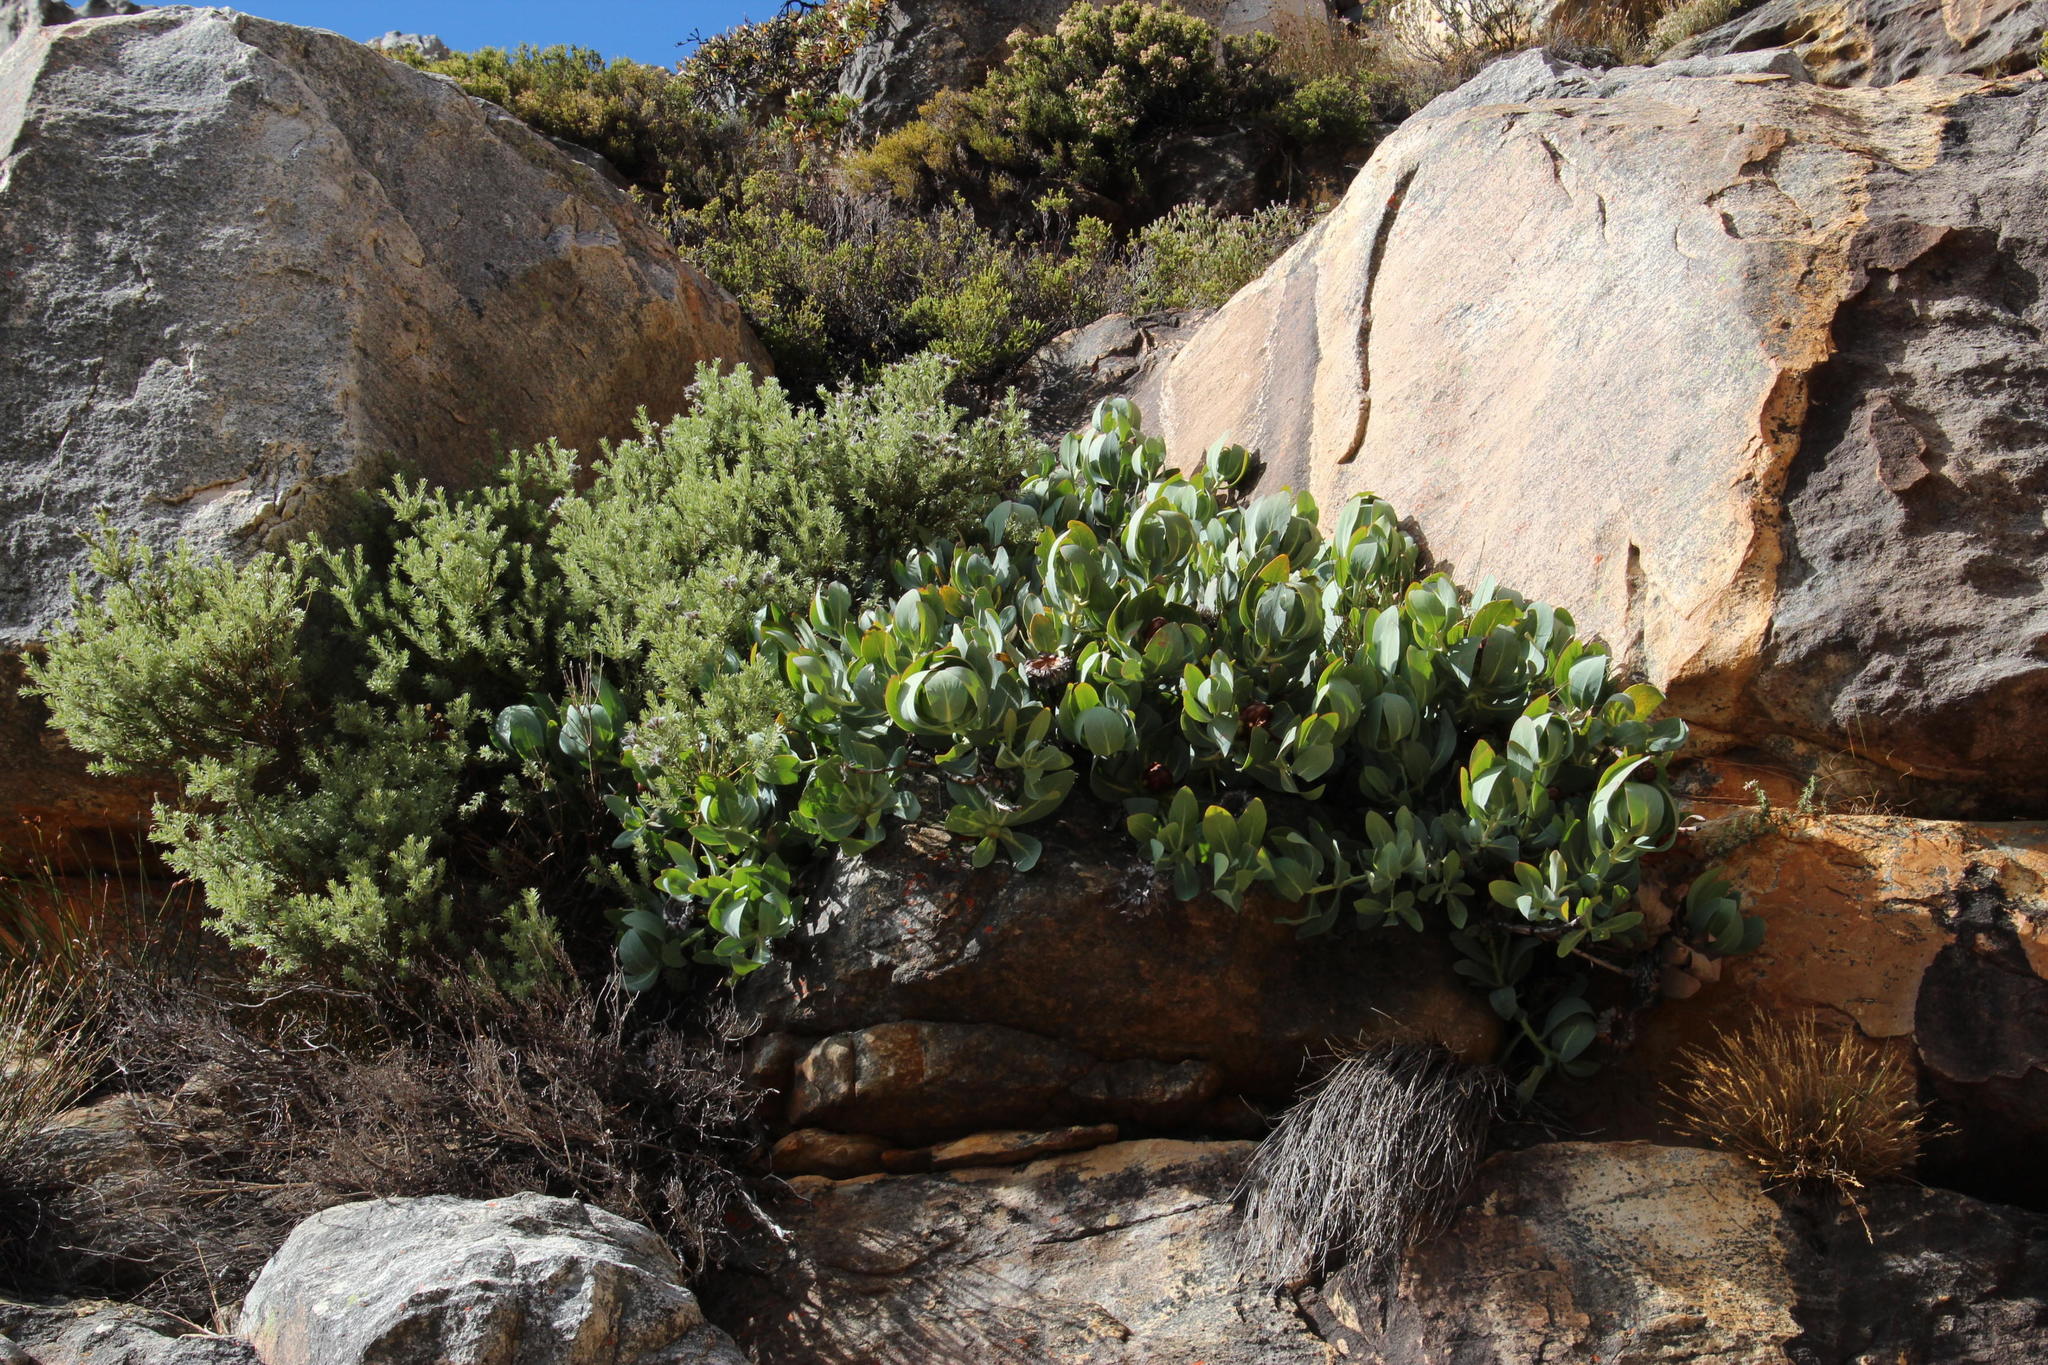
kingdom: Plantae
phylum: Tracheophyta
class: Magnoliopsida
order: Proteales
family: Proteaceae
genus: Protea
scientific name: Protea recondita
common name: Hidden sugarbush
